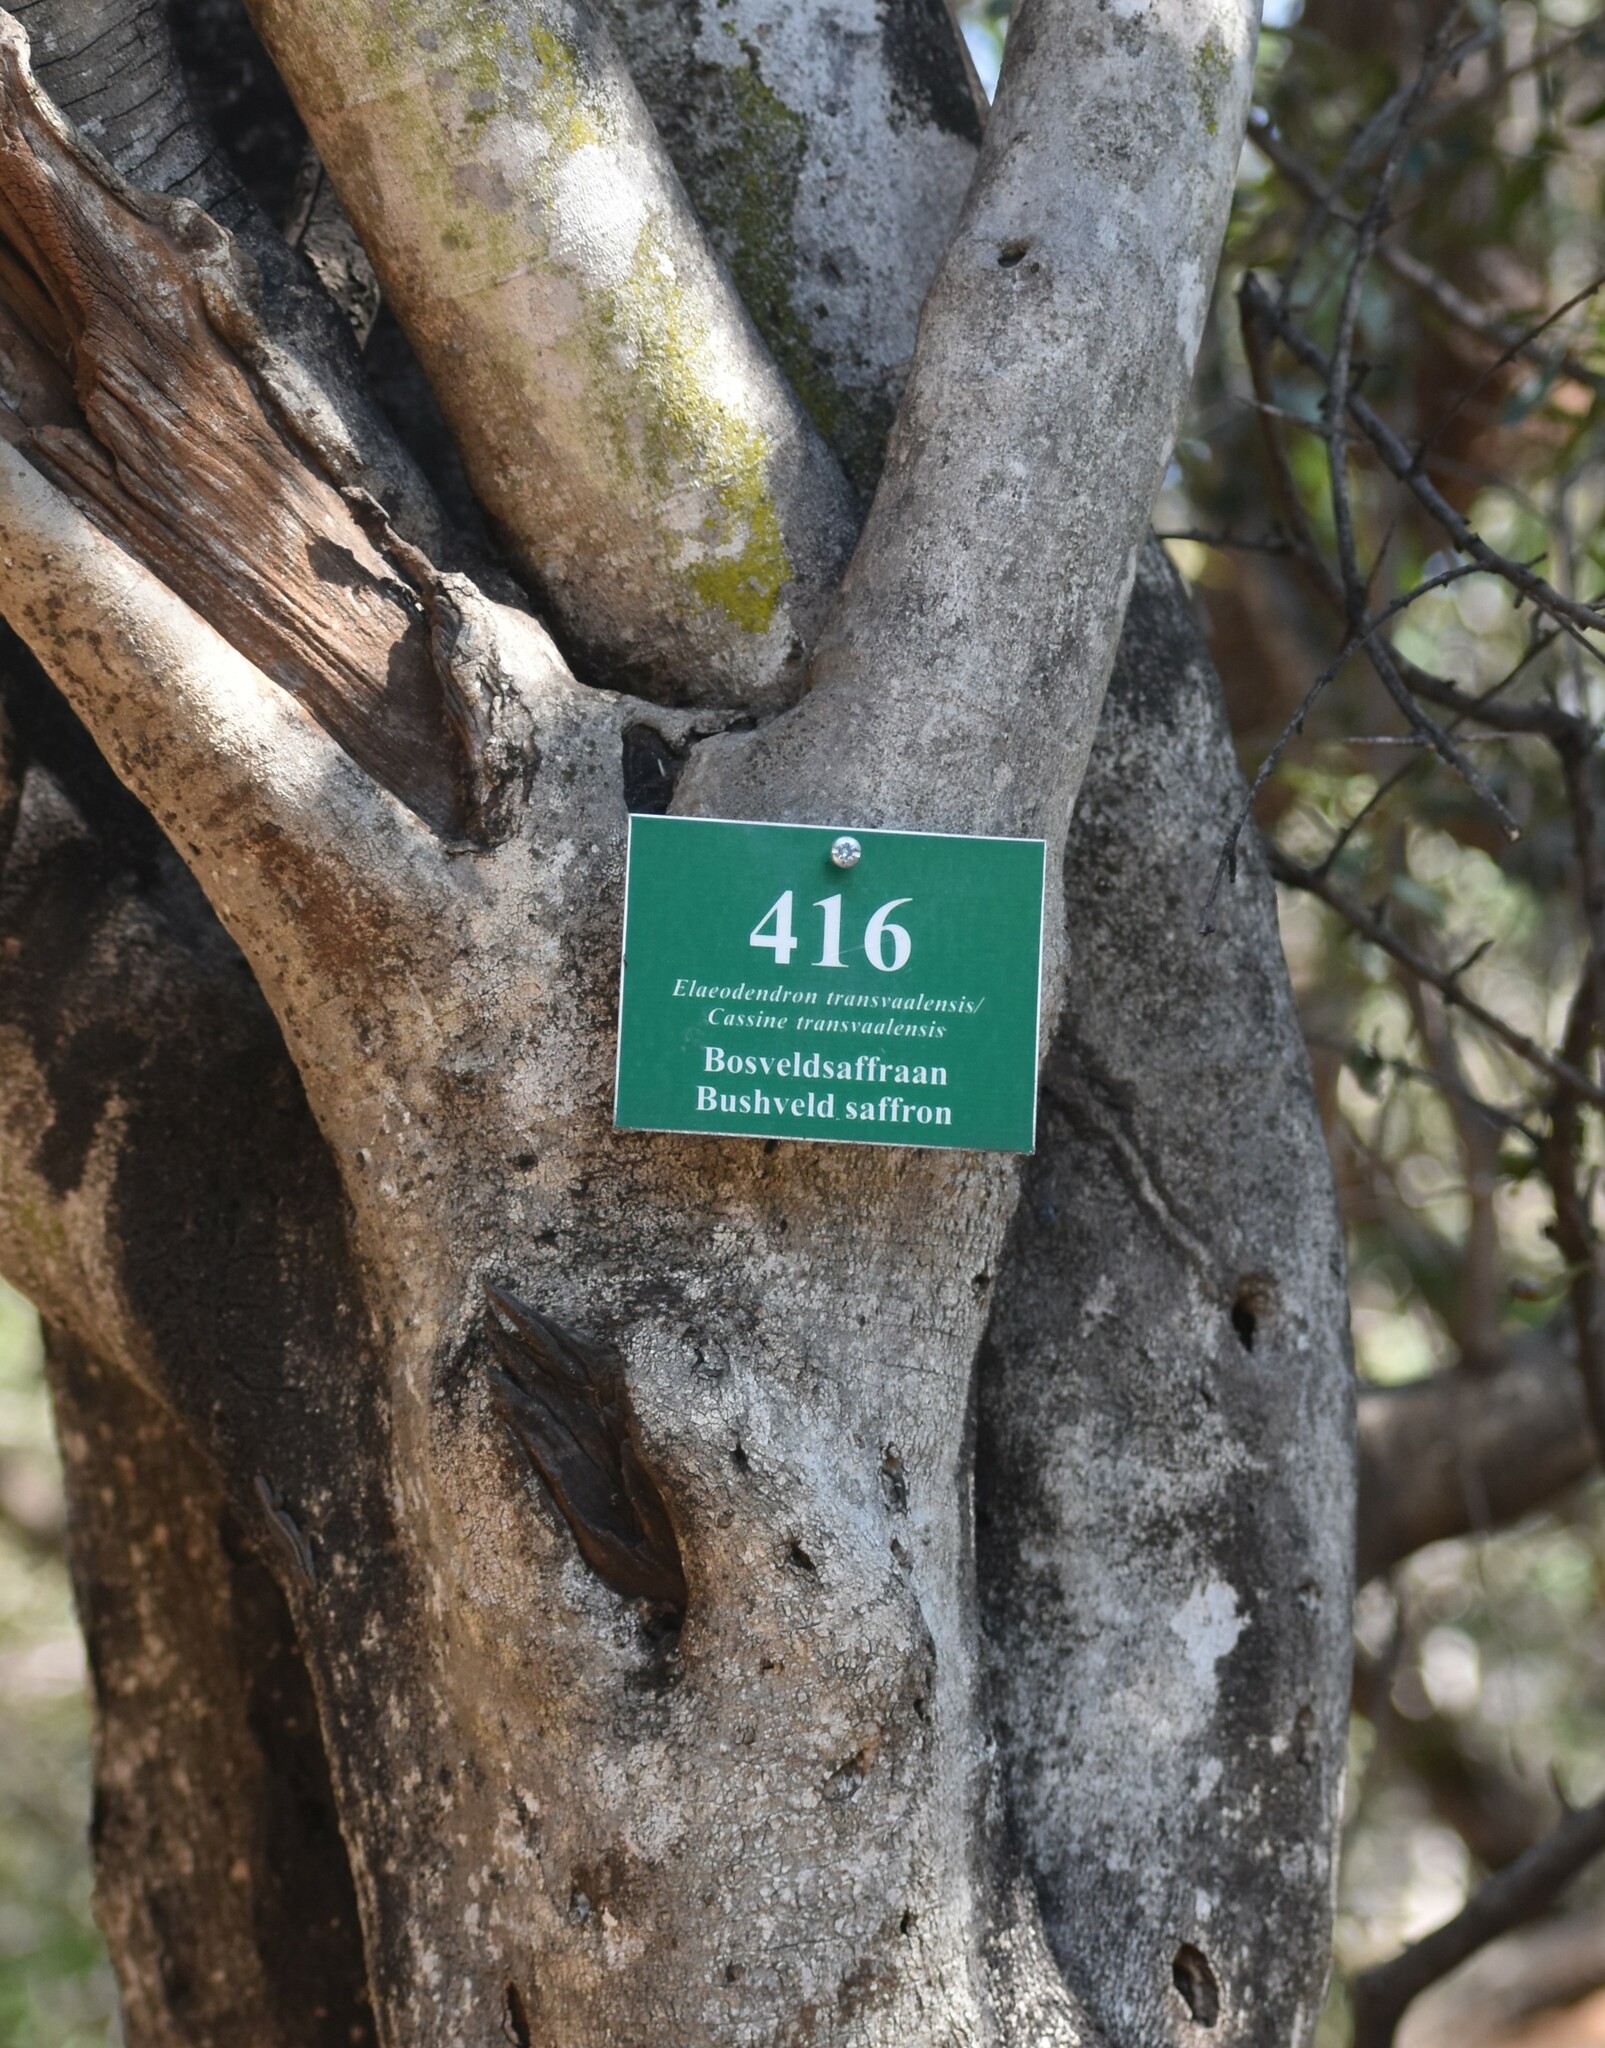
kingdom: Plantae
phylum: Tracheophyta
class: Magnoliopsida
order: Celastrales
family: Celastraceae
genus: Elaeodendron
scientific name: Elaeodendron transvaalense
